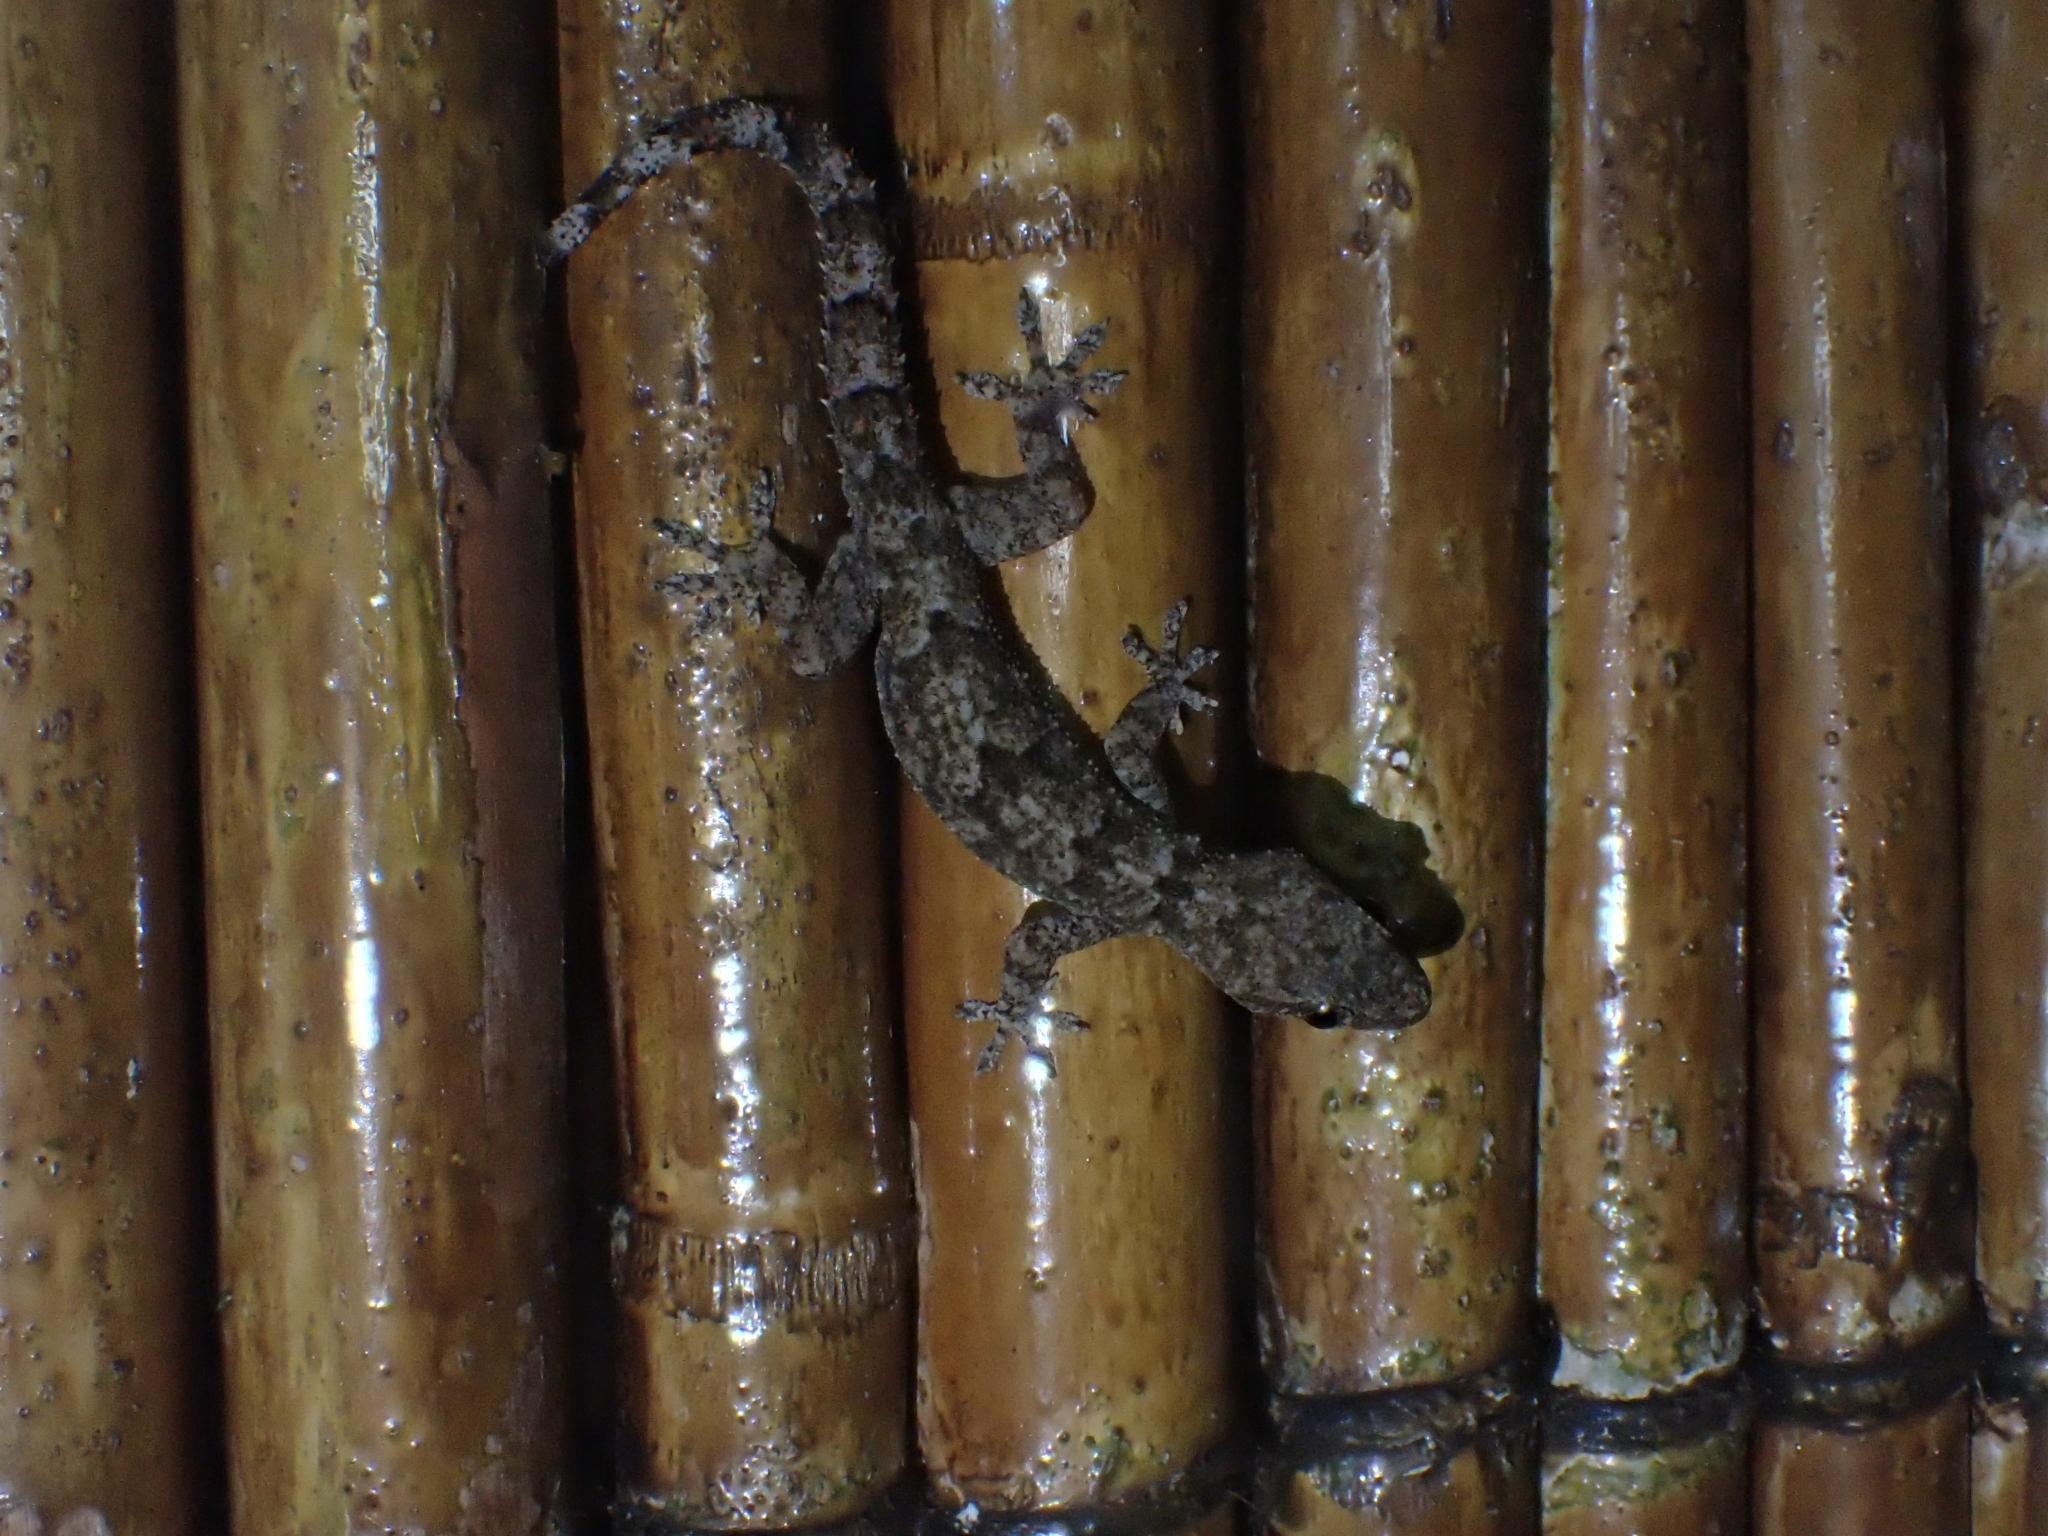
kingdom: Animalia
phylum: Chordata
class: Squamata
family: Gekkonidae
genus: Hemidactylus
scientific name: Hemidactylus mabouia
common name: House gecko
